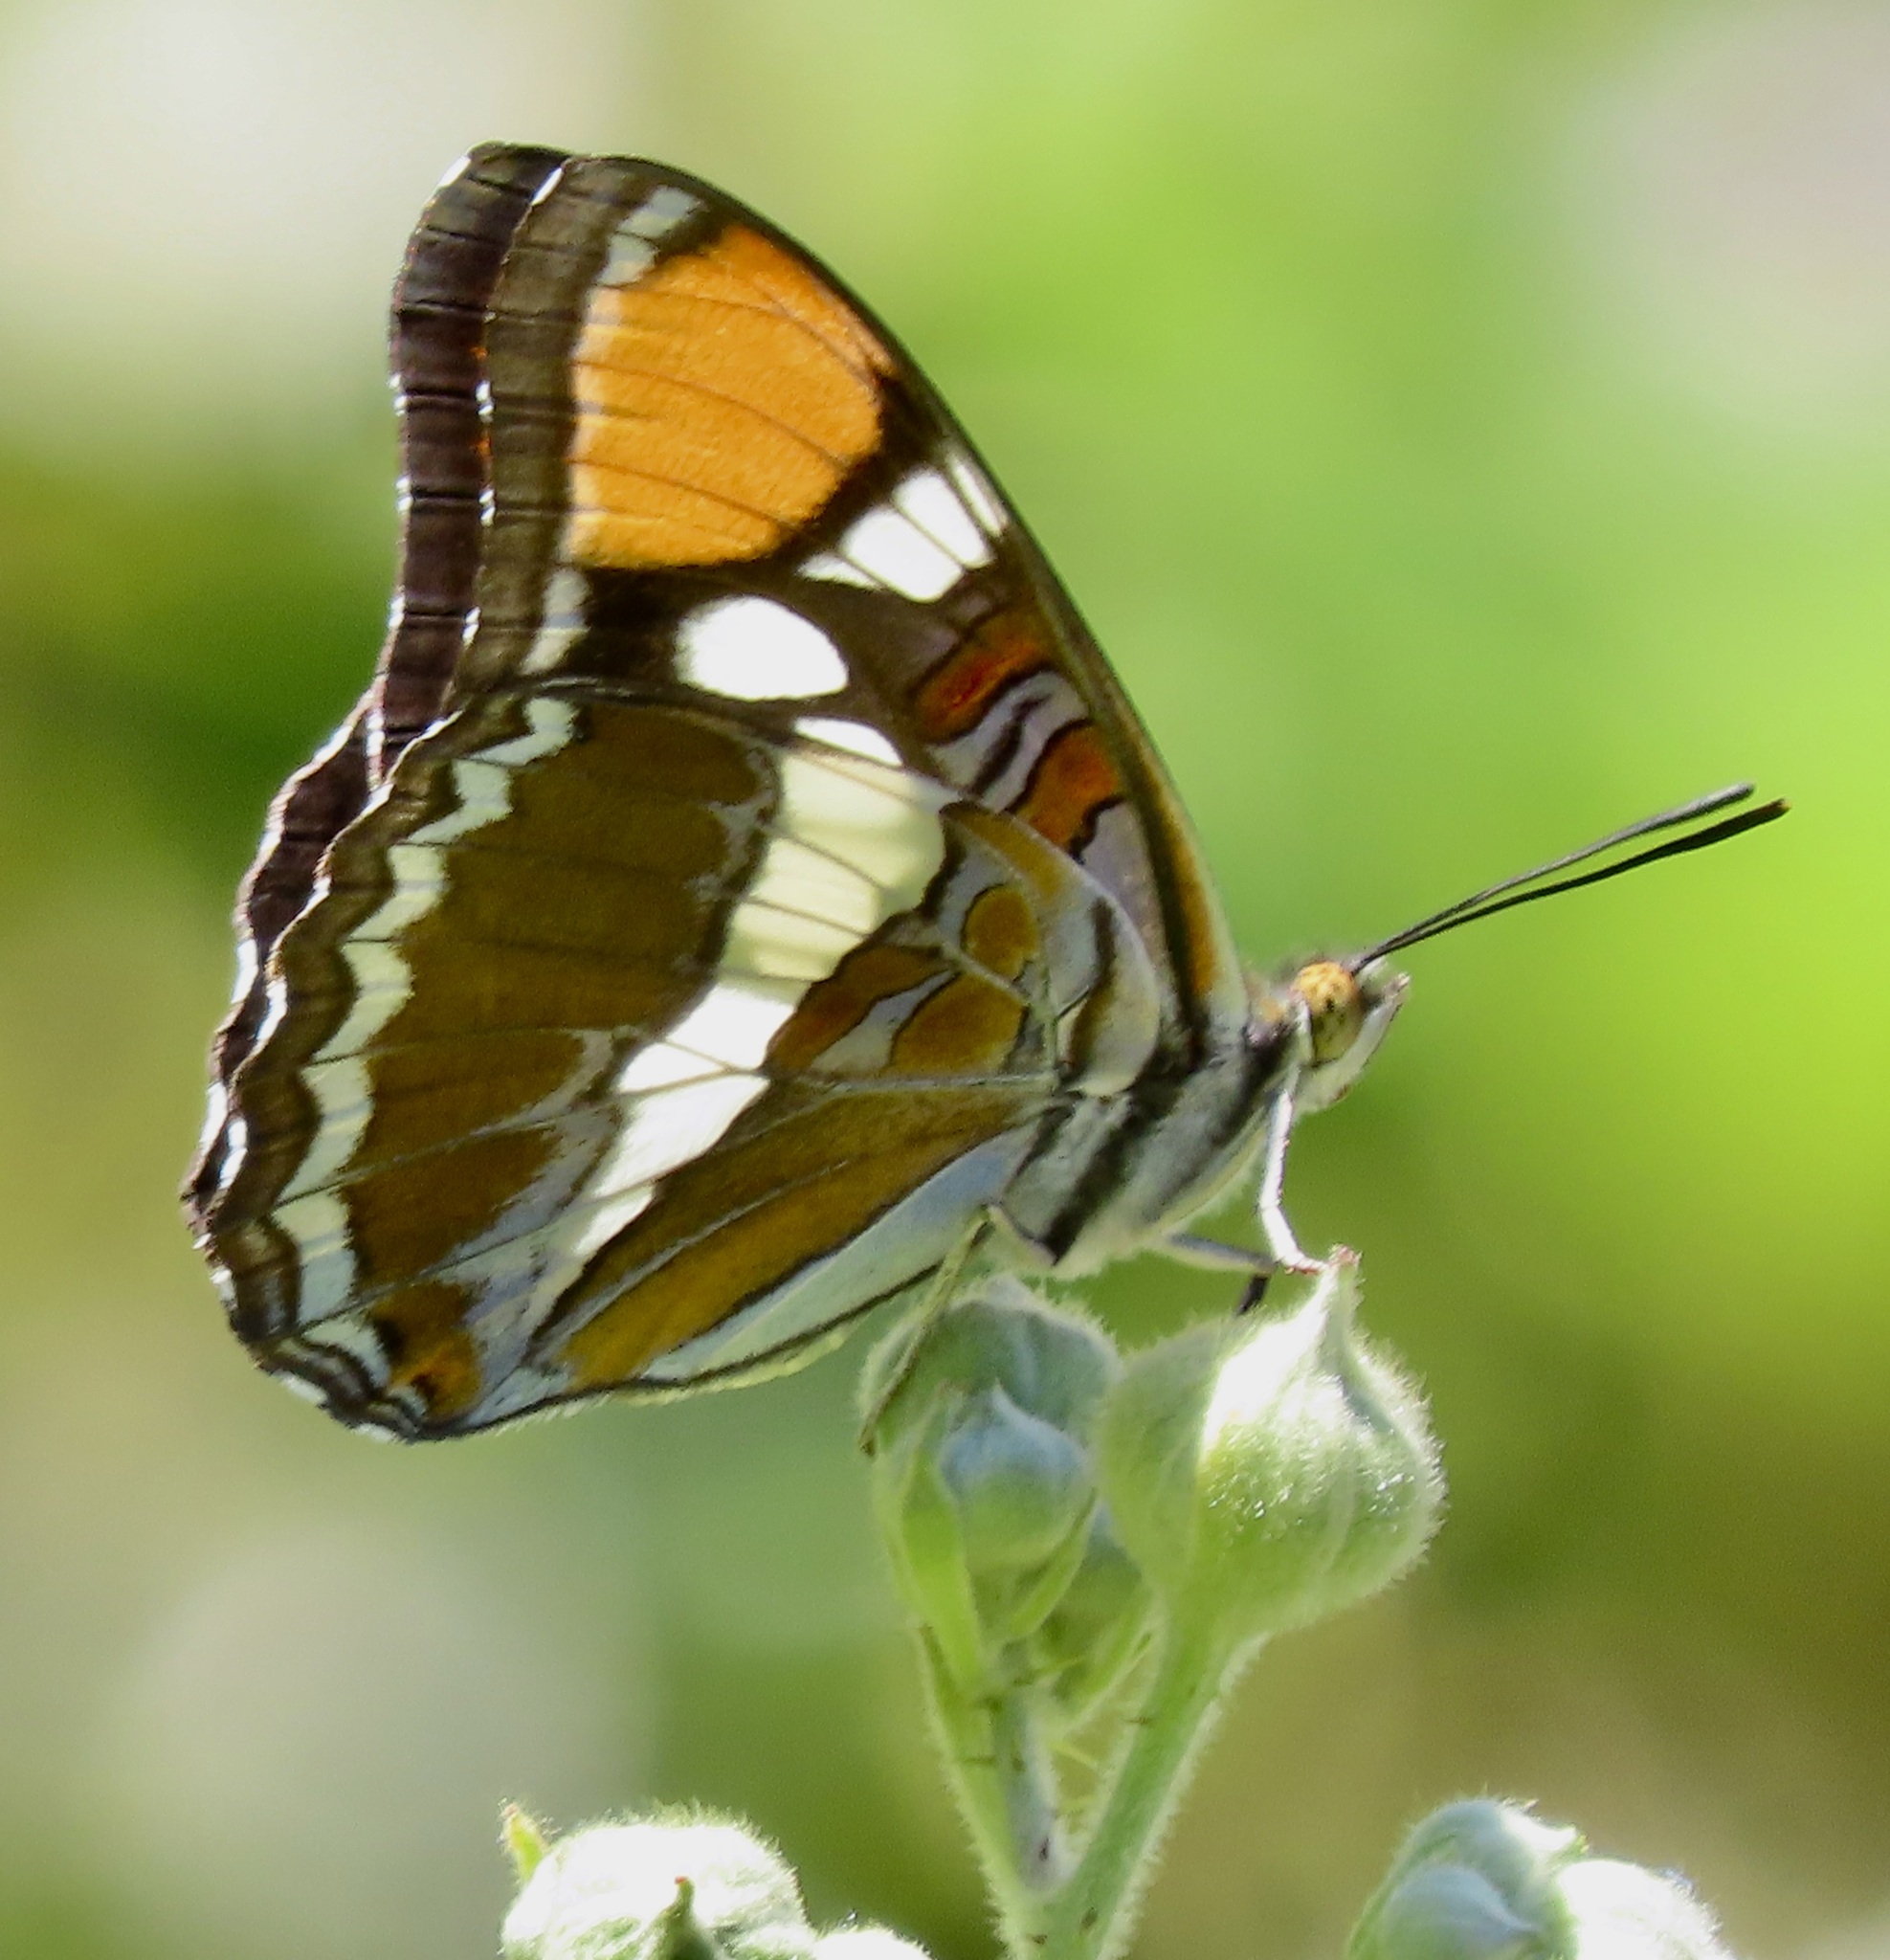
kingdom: Animalia
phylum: Arthropoda
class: Insecta
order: Lepidoptera
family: Nymphalidae
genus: Limenitis
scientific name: Limenitis bredowii
